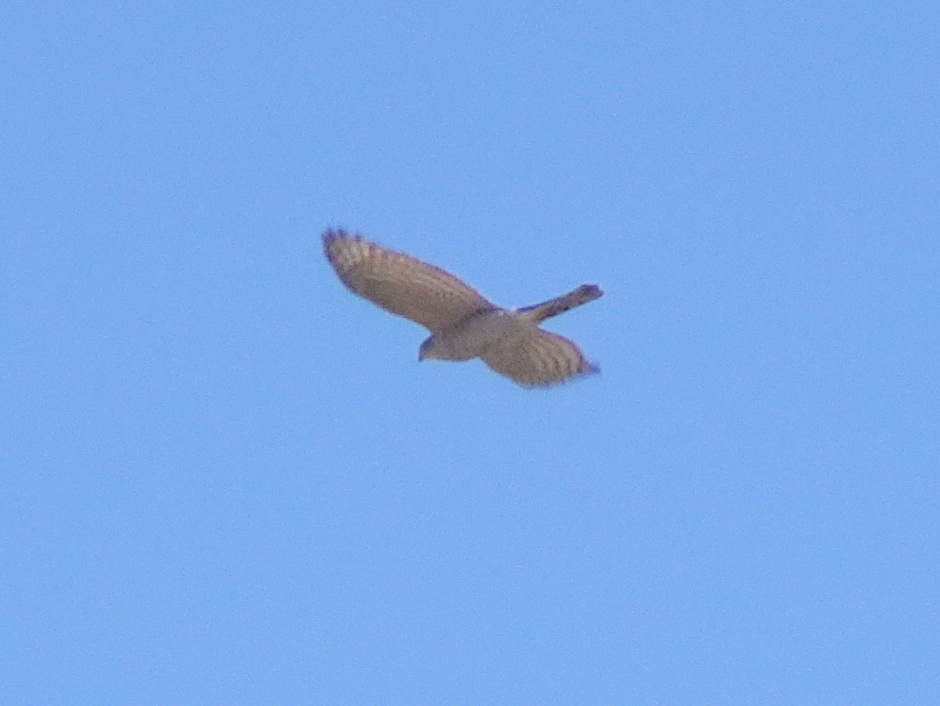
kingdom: Animalia
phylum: Chordata
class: Aves
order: Accipitriformes
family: Accipitridae
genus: Accipiter
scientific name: Accipiter nisus
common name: Eurasian sparrowhawk
